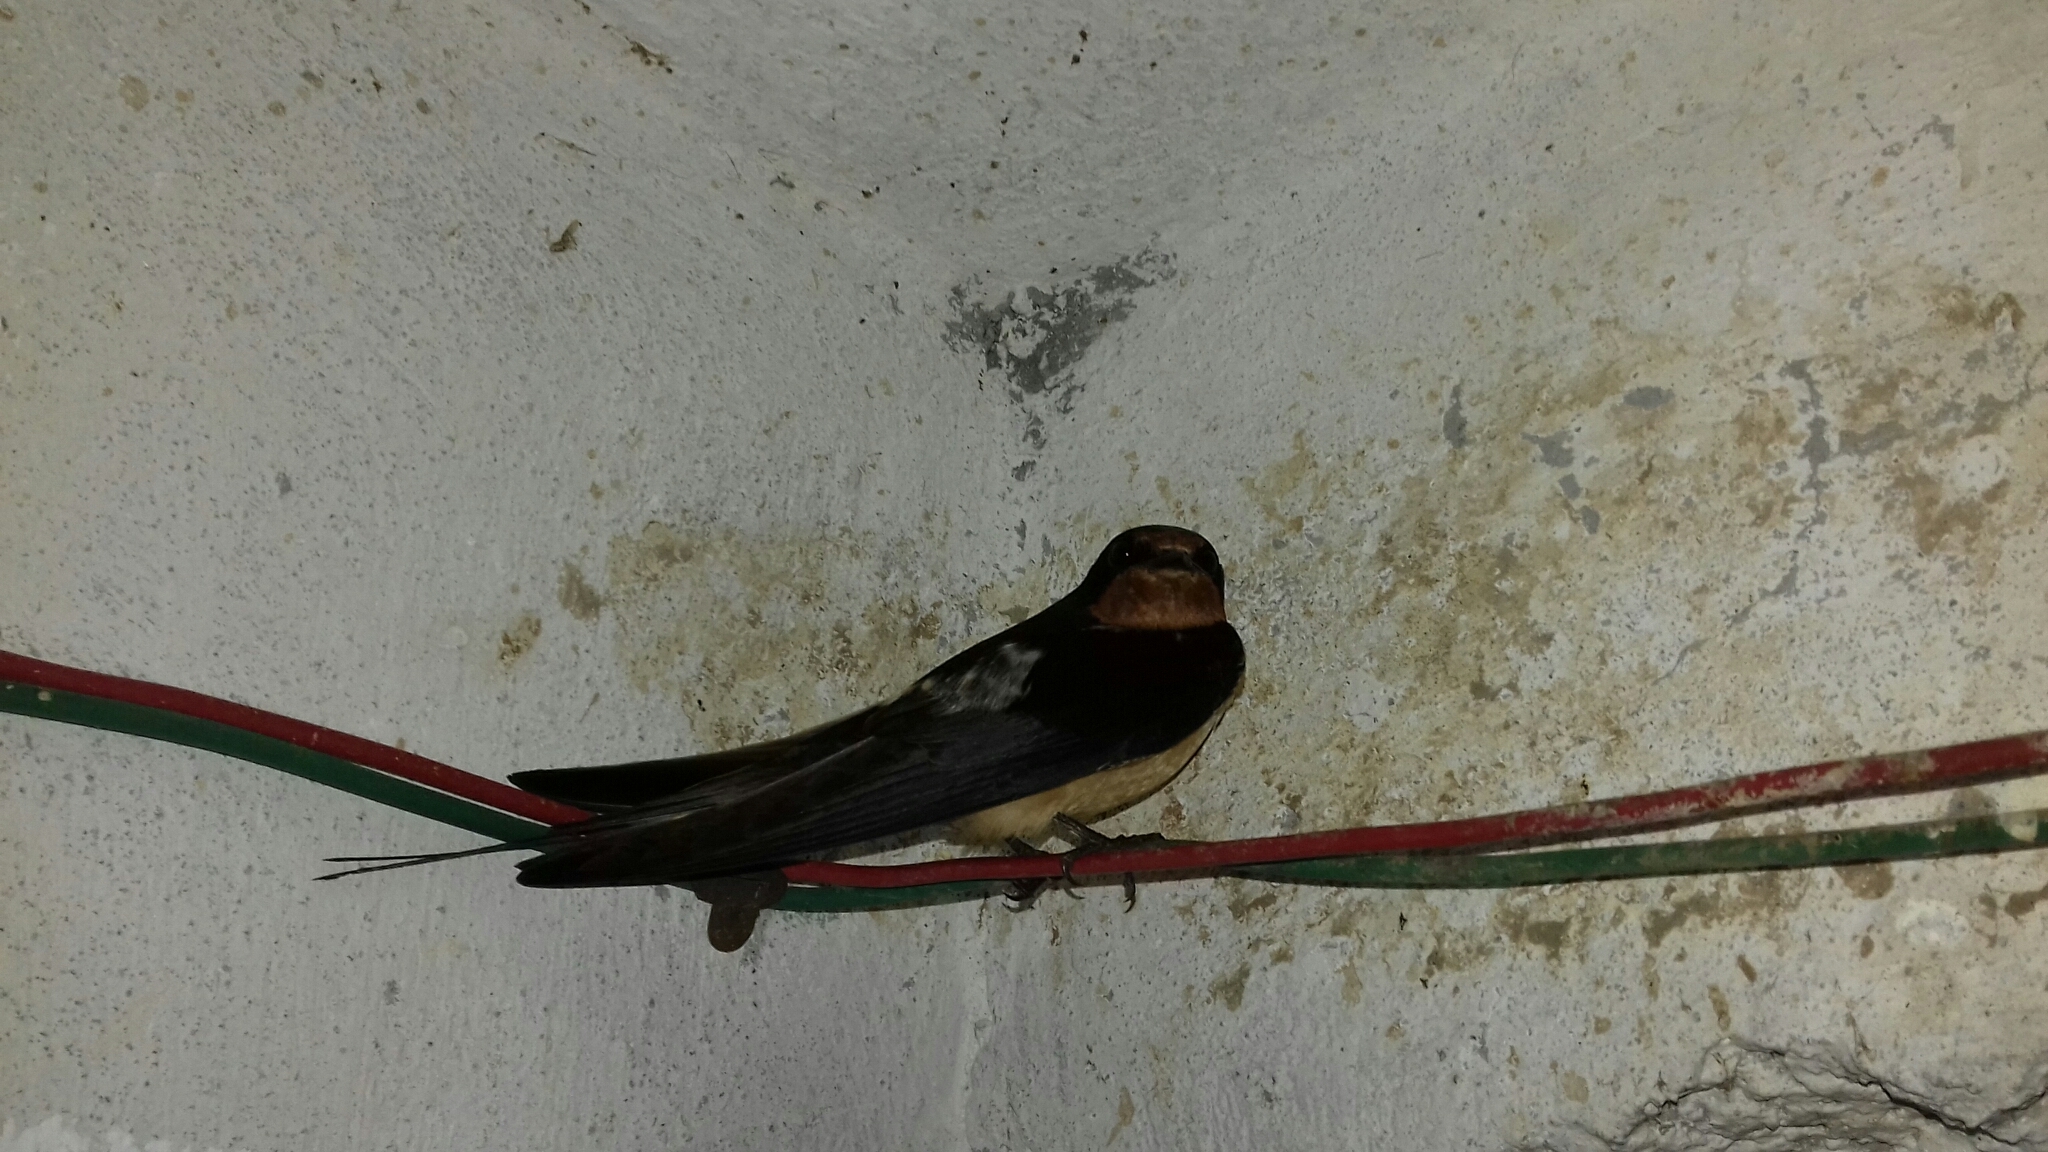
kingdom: Animalia
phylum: Chordata
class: Aves
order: Passeriformes
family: Hirundinidae
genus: Hirundo
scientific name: Hirundo rustica
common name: Barn swallow
